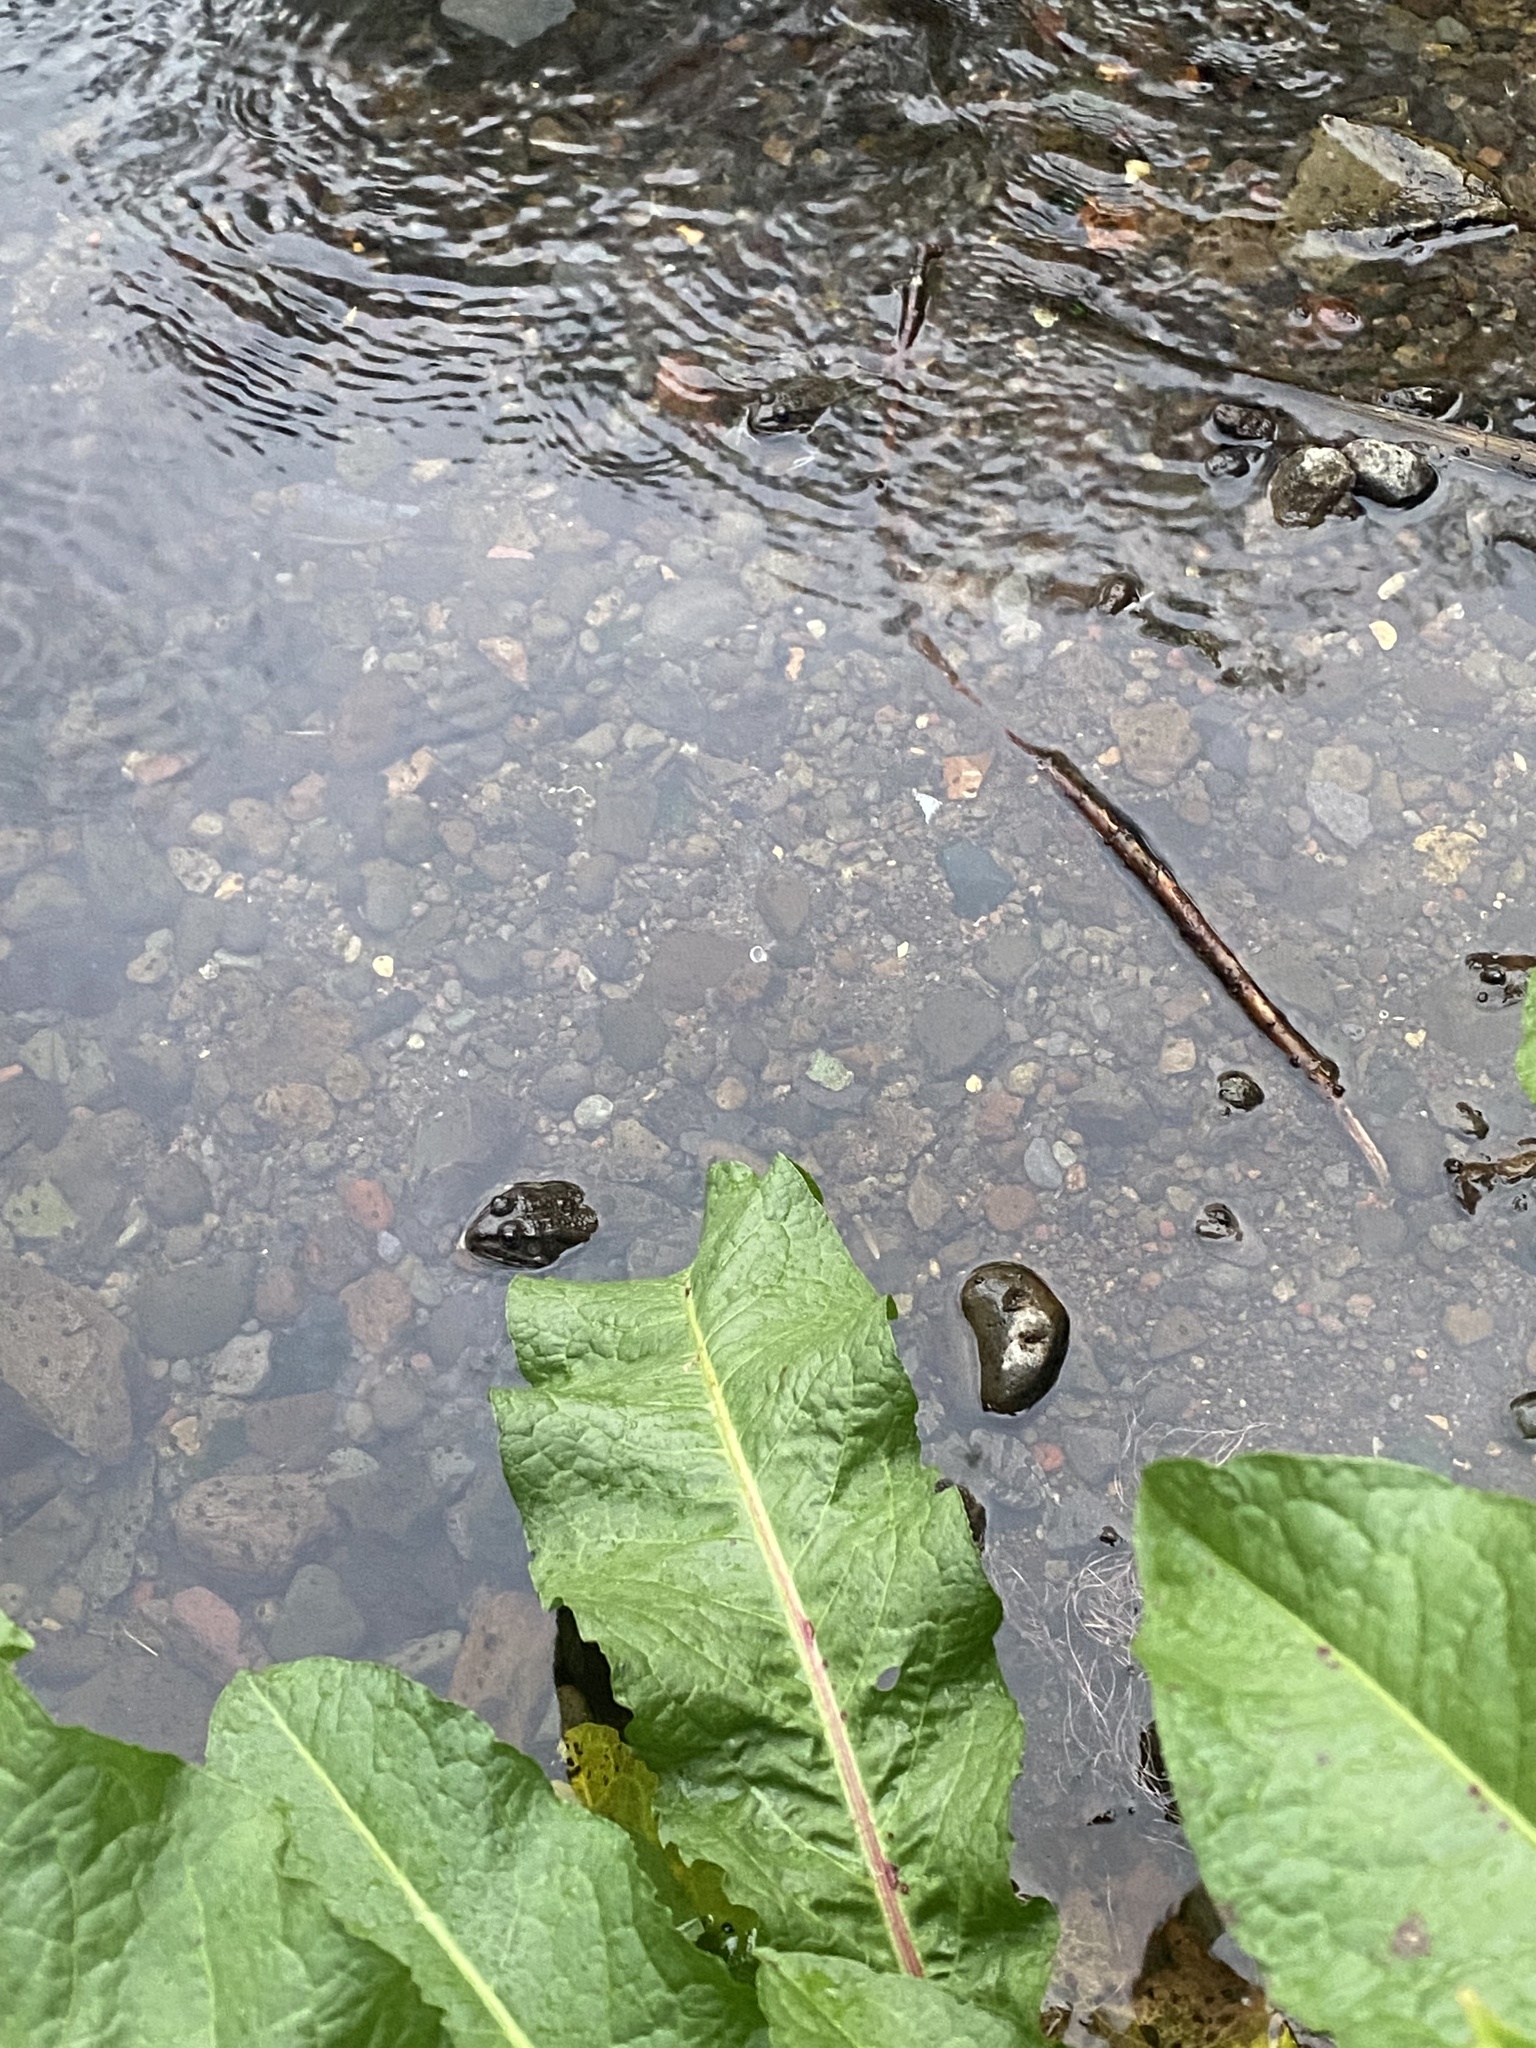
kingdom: Animalia
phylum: Chordata
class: Amphibia
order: Anura
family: Ranidae
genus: Pelophylax
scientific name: Pelophylax ridibundus
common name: Marsh frog
